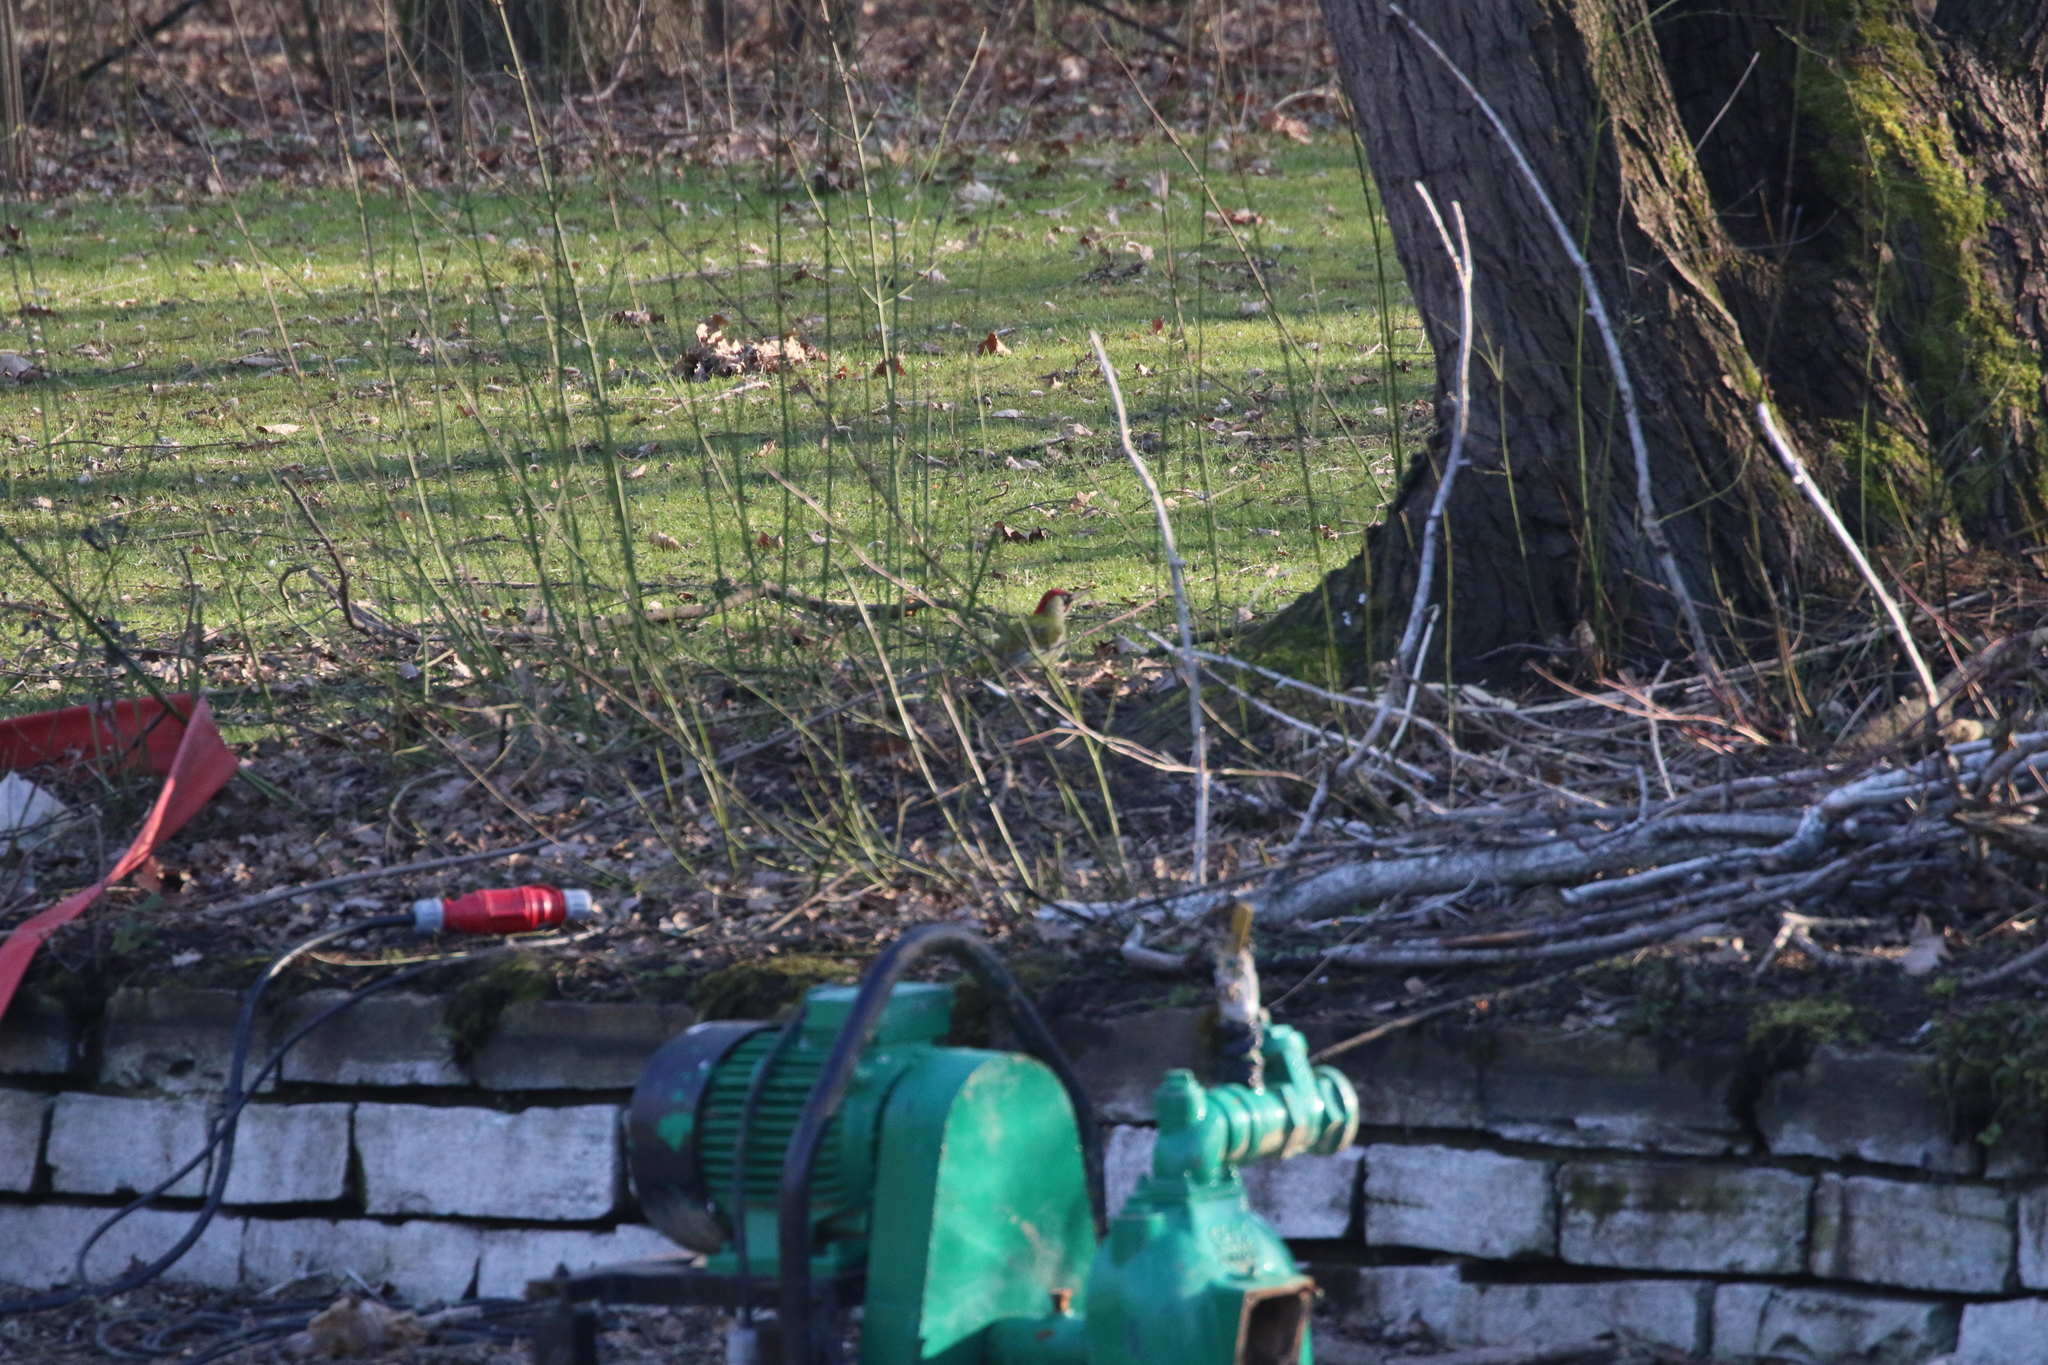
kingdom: Animalia
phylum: Chordata
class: Aves
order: Piciformes
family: Picidae
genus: Picus
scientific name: Picus viridis
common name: European green woodpecker
